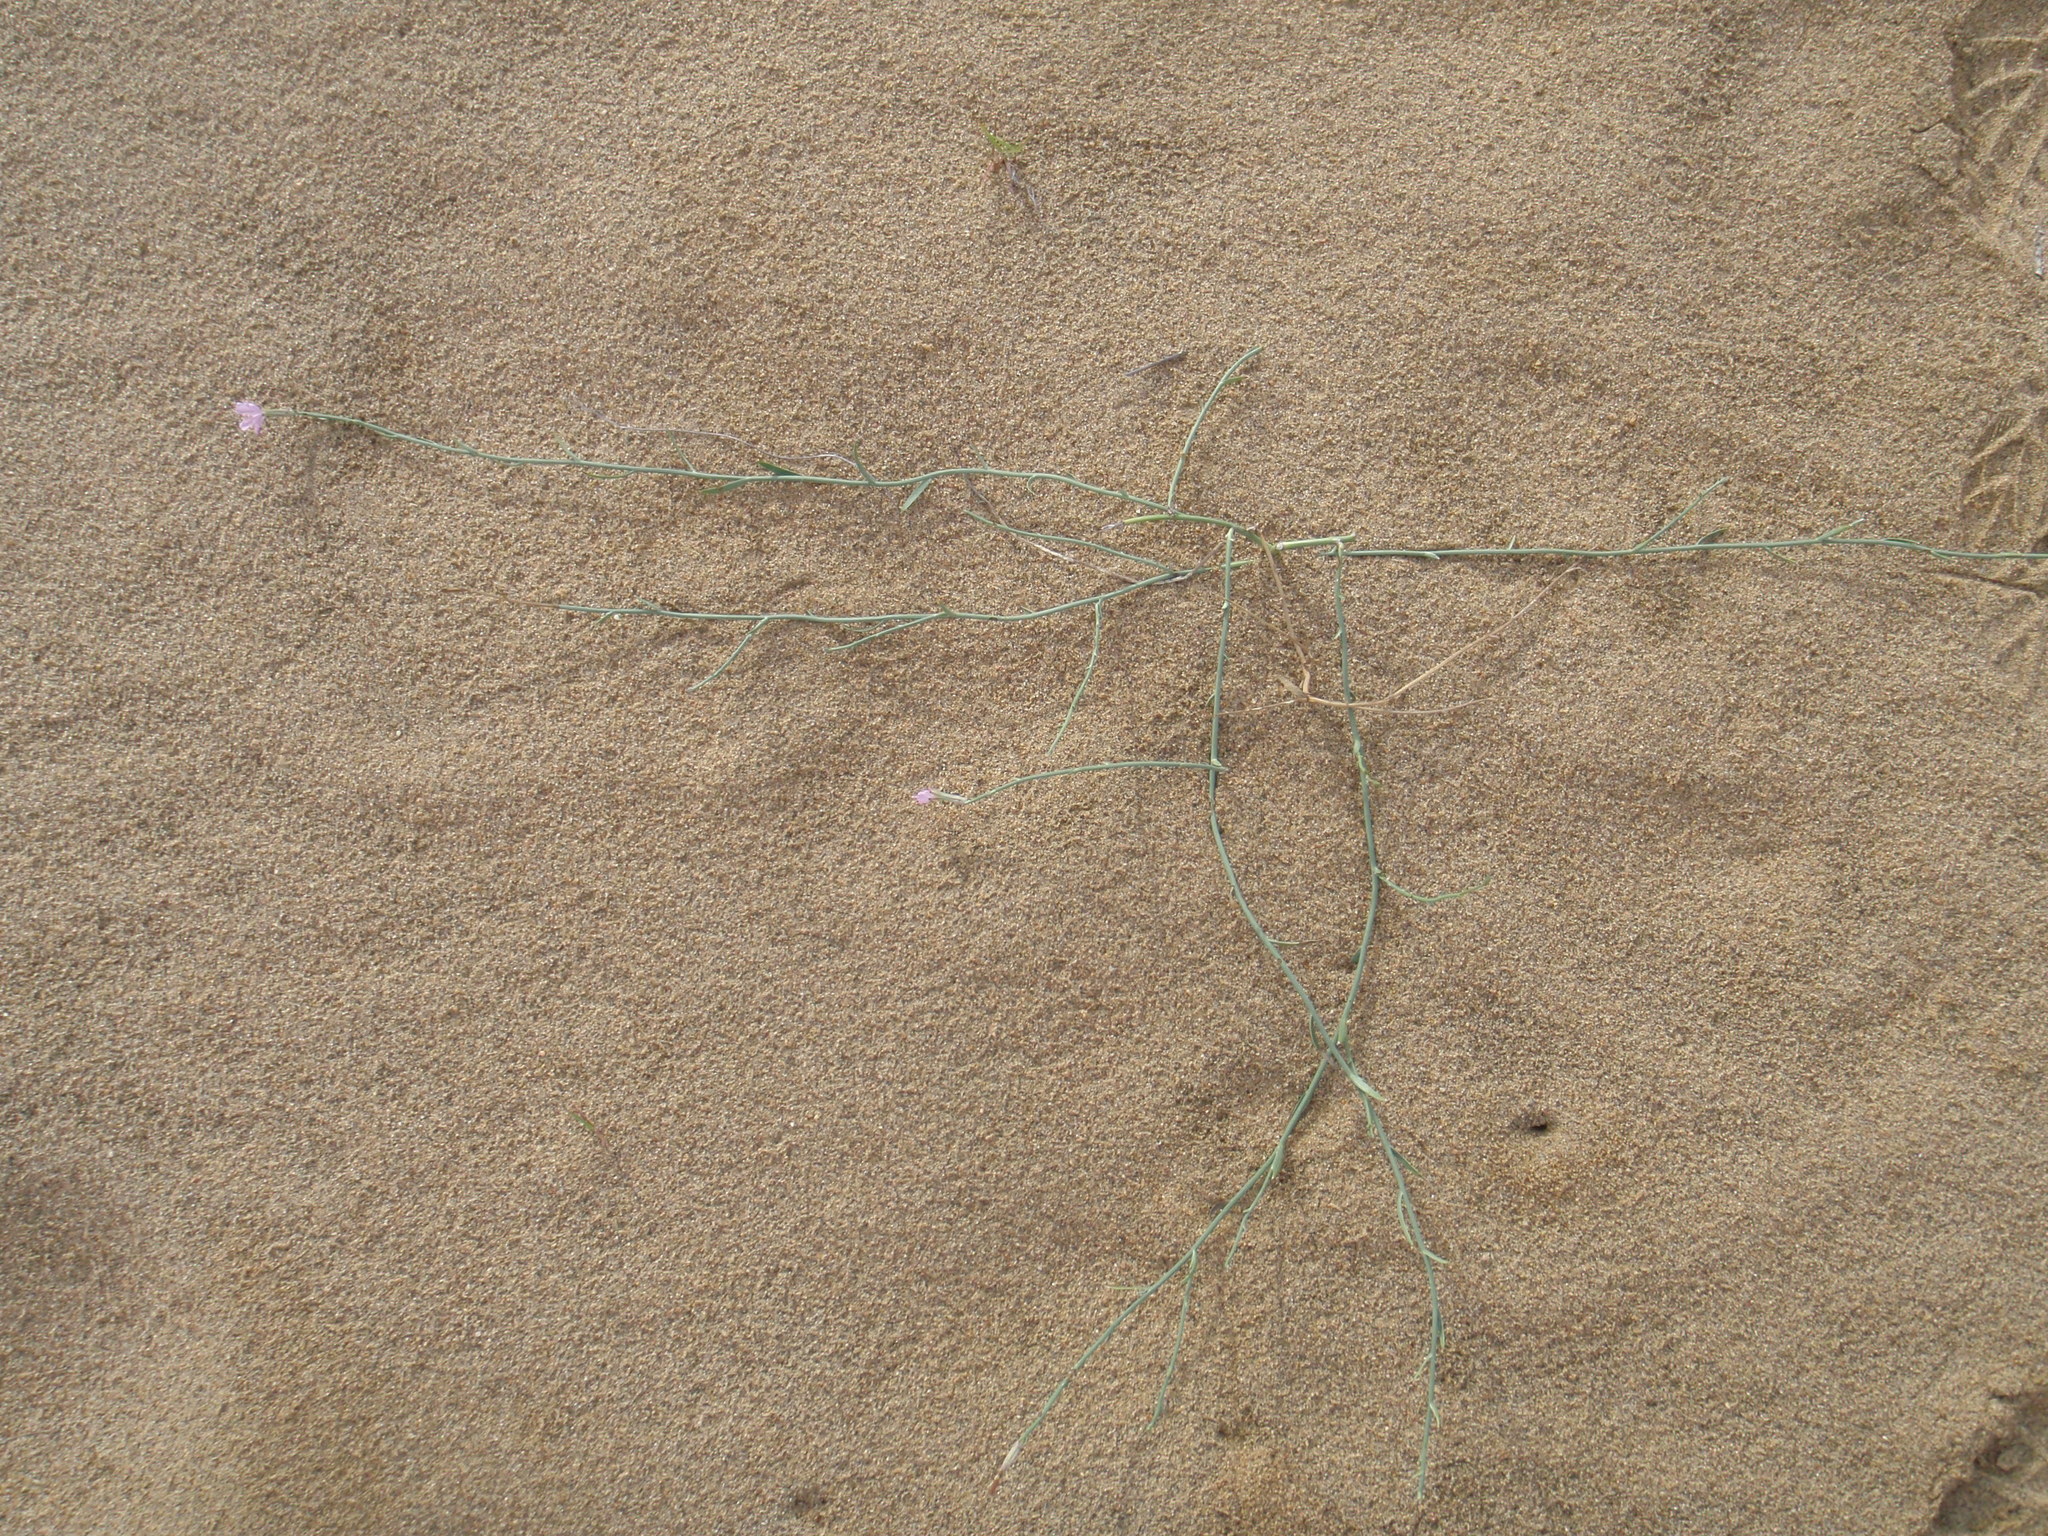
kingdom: Plantae
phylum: Tracheophyta
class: Magnoliopsida
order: Asterales
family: Asteraceae
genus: Lygodesmia
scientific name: Lygodesmia juncea
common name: Common skeletonweed
